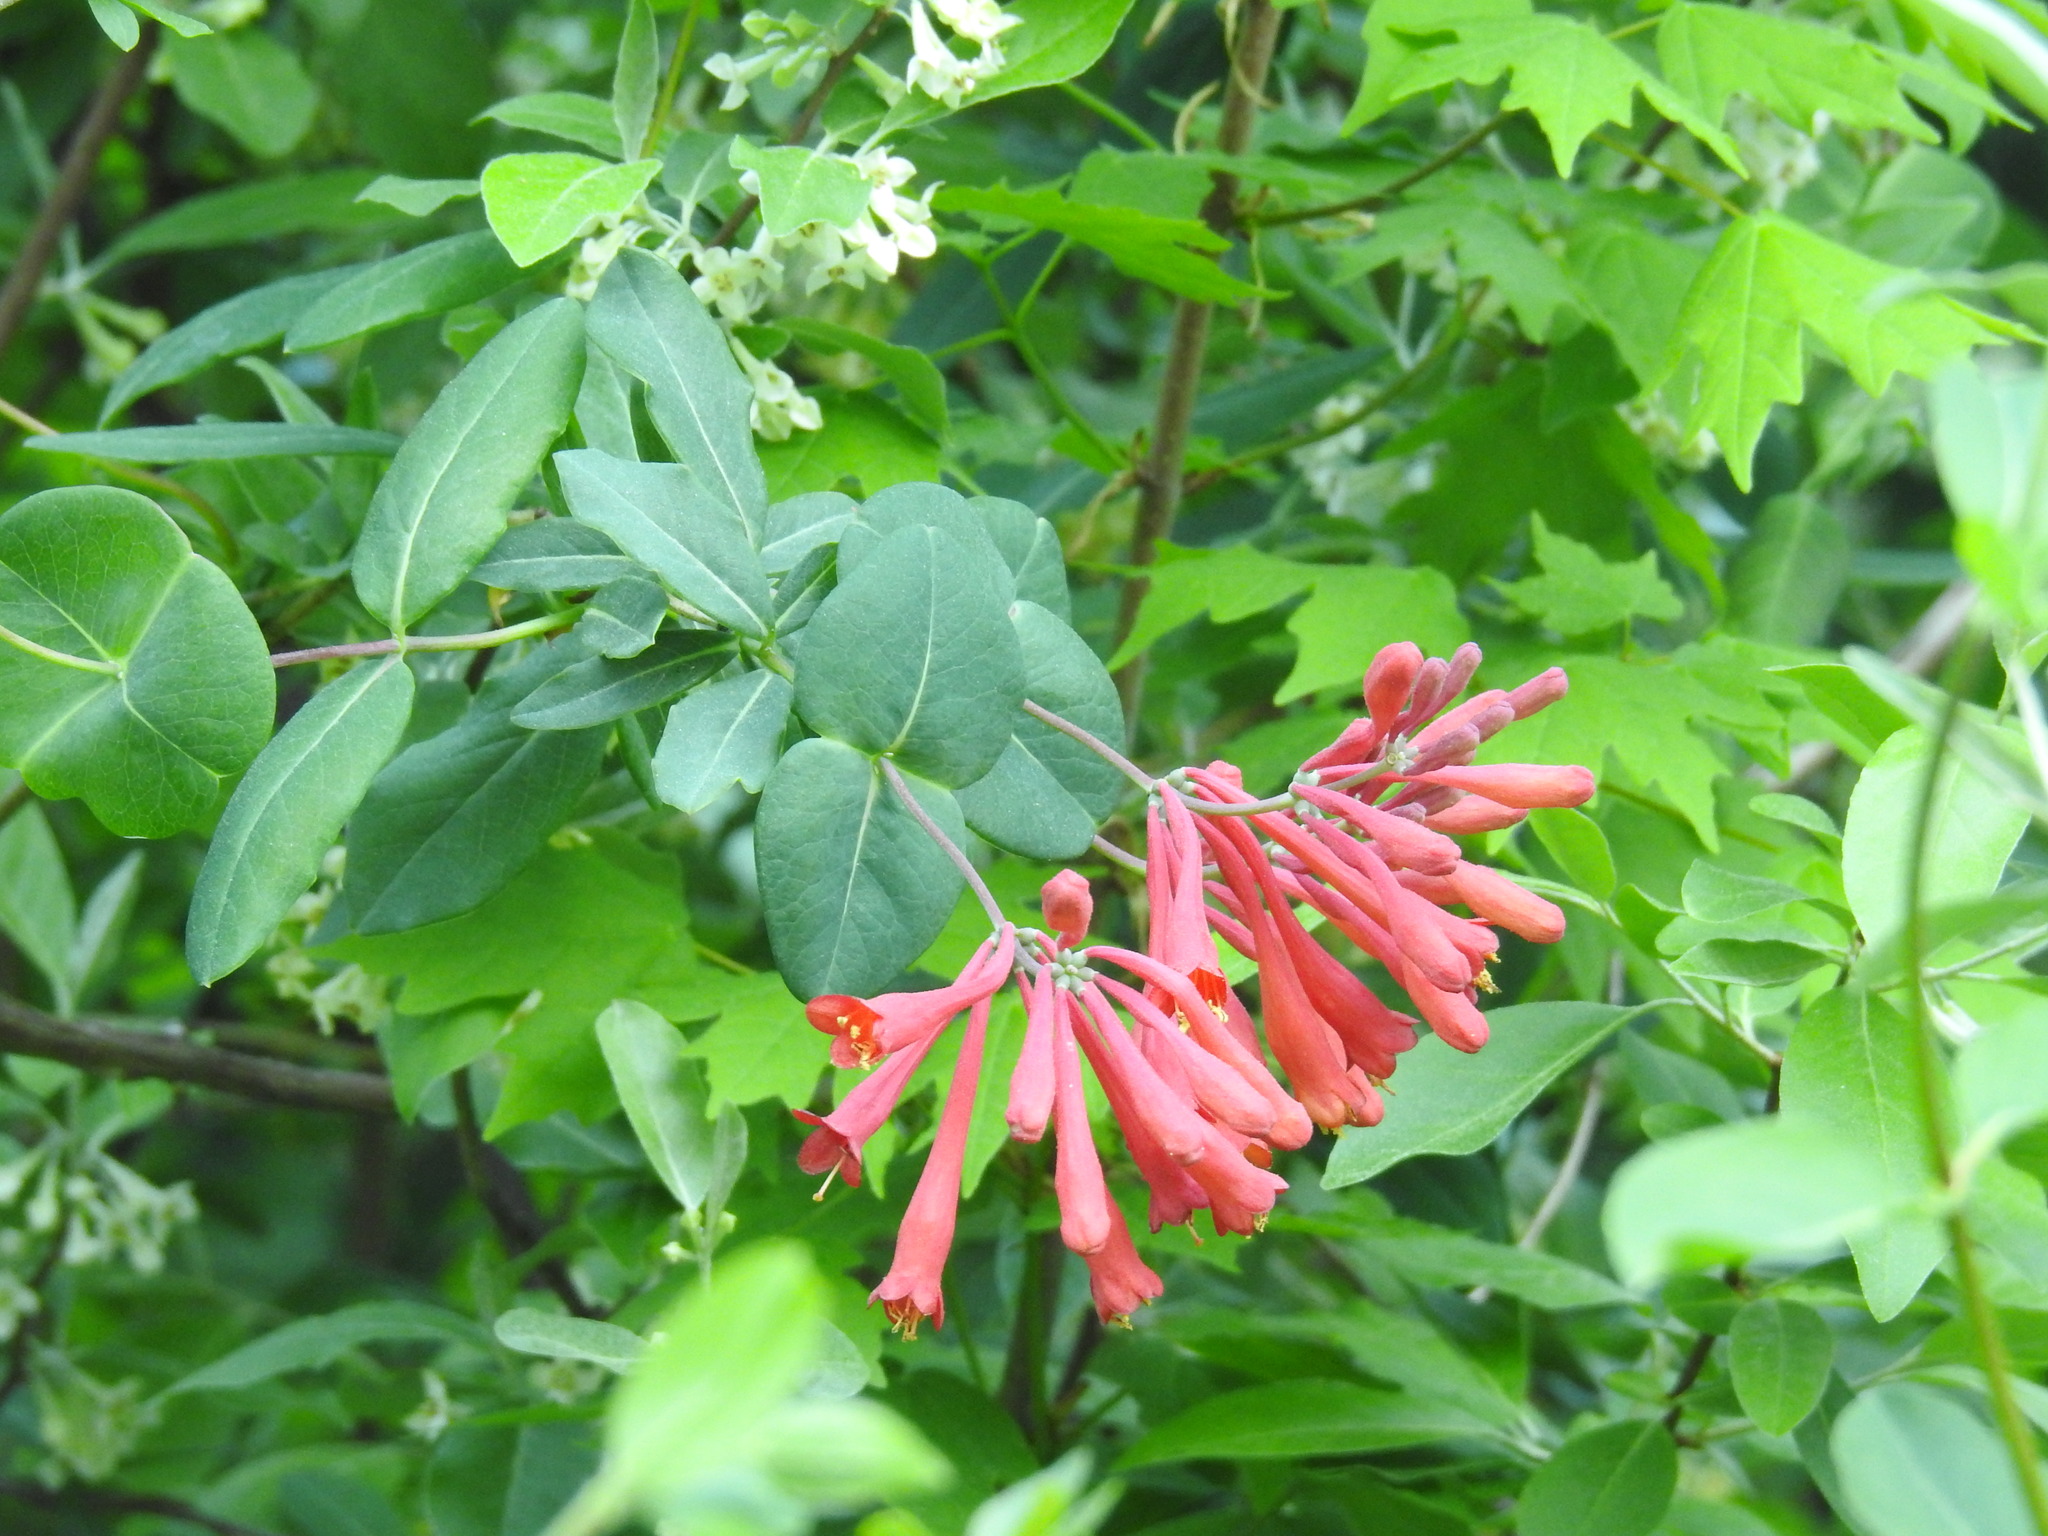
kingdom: Plantae
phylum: Tracheophyta
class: Magnoliopsida
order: Dipsacales
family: Caprifoliaceae
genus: Lonicera
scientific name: Lonicera sempervirens
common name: Coral honeysuckle
